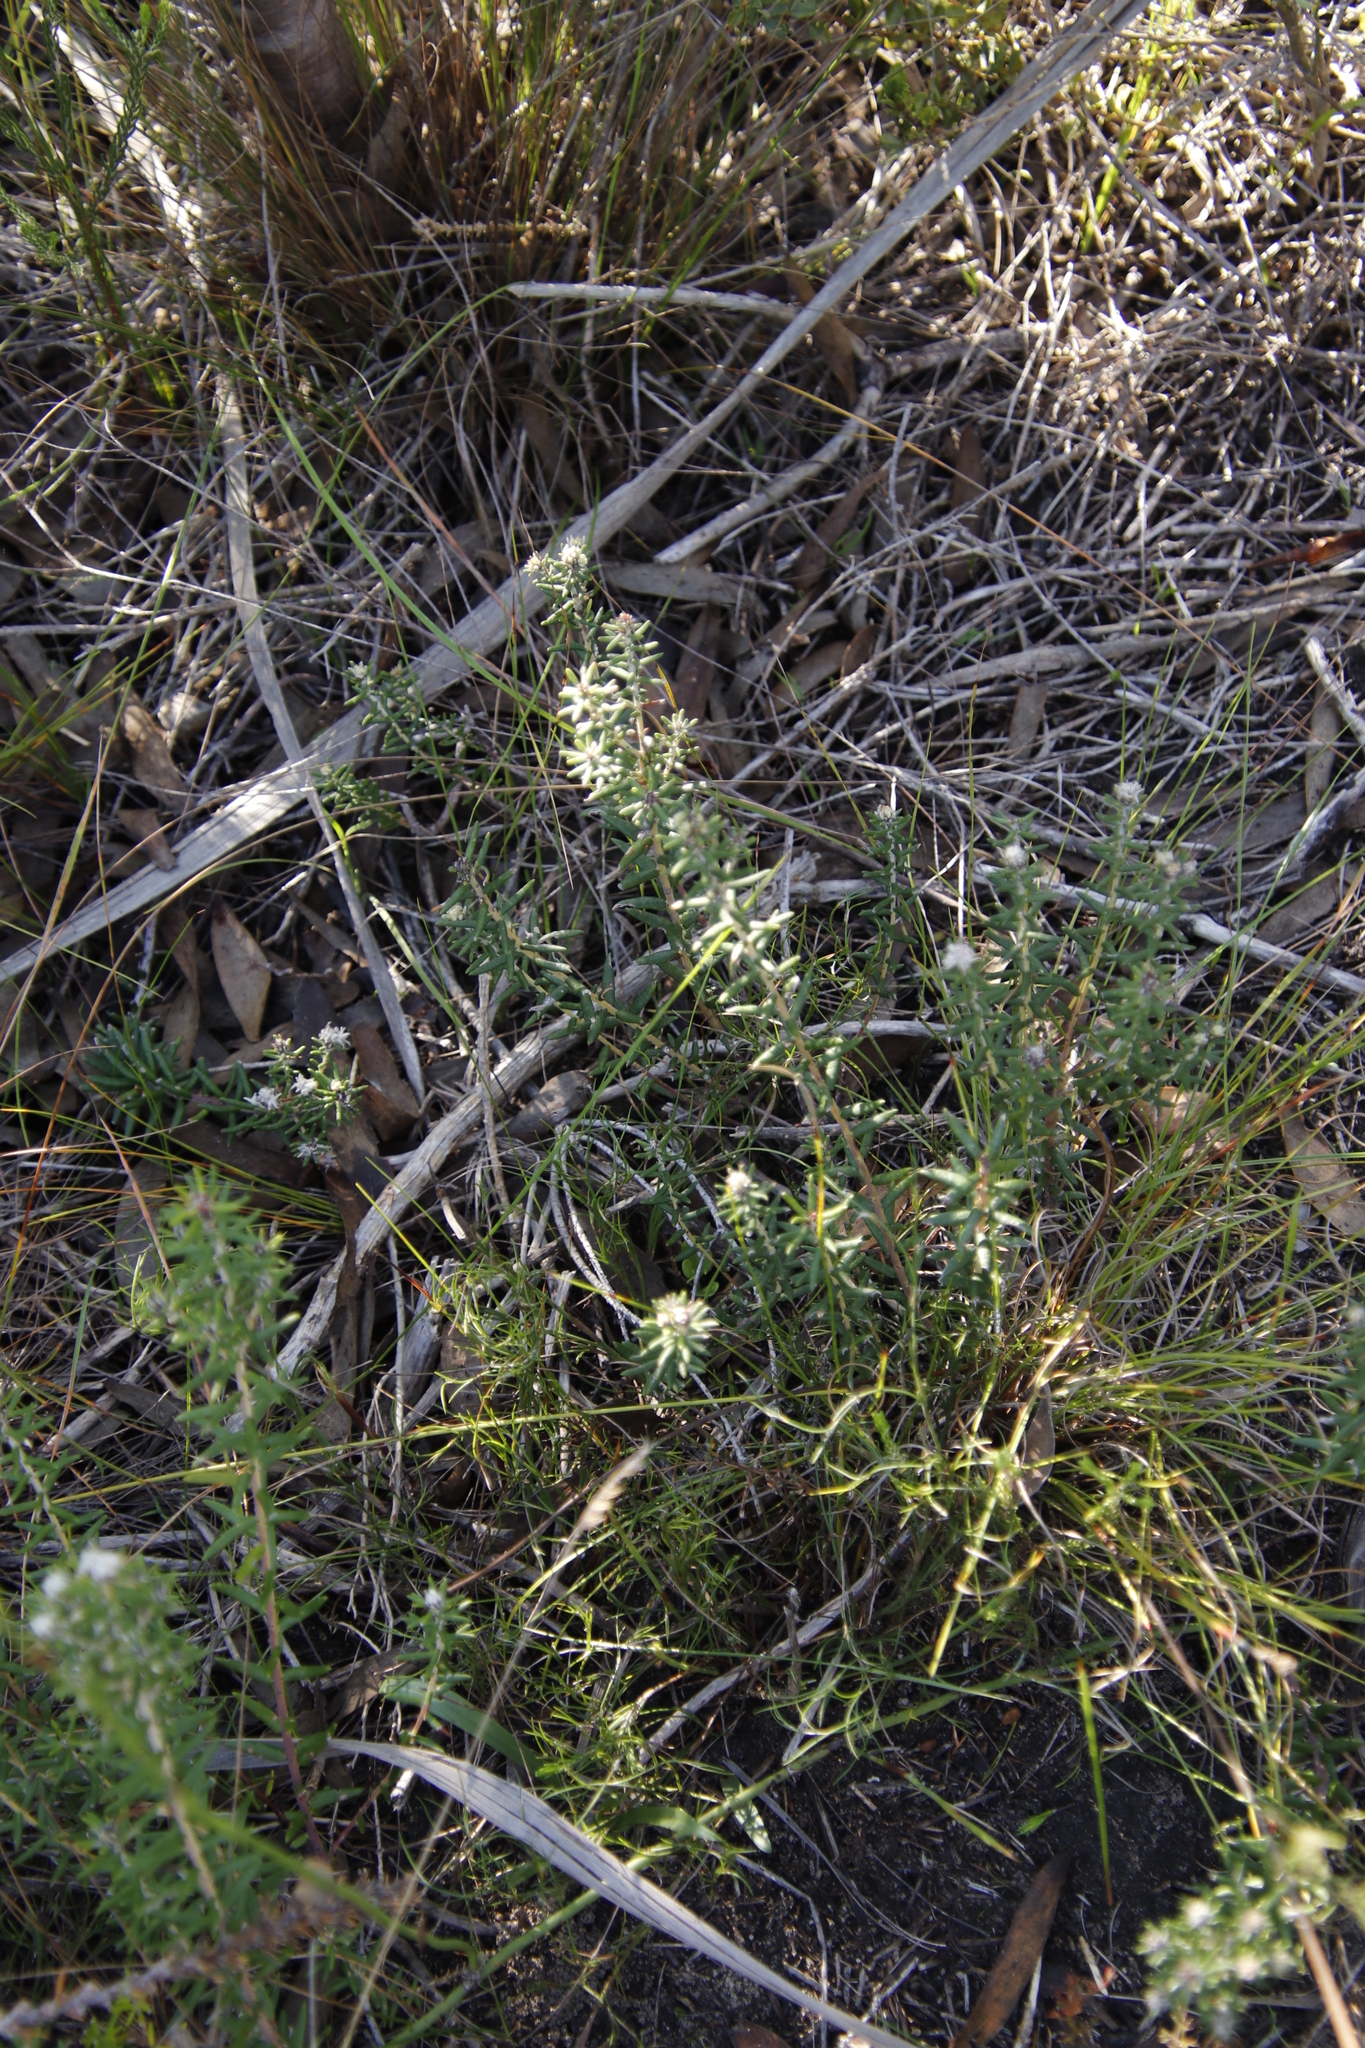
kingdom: Plantae
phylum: Tracheophyta
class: Magnoliopsida
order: Rosales
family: Rhamnaceae
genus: Trichocephalus
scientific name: Trichocephalus stipularis
